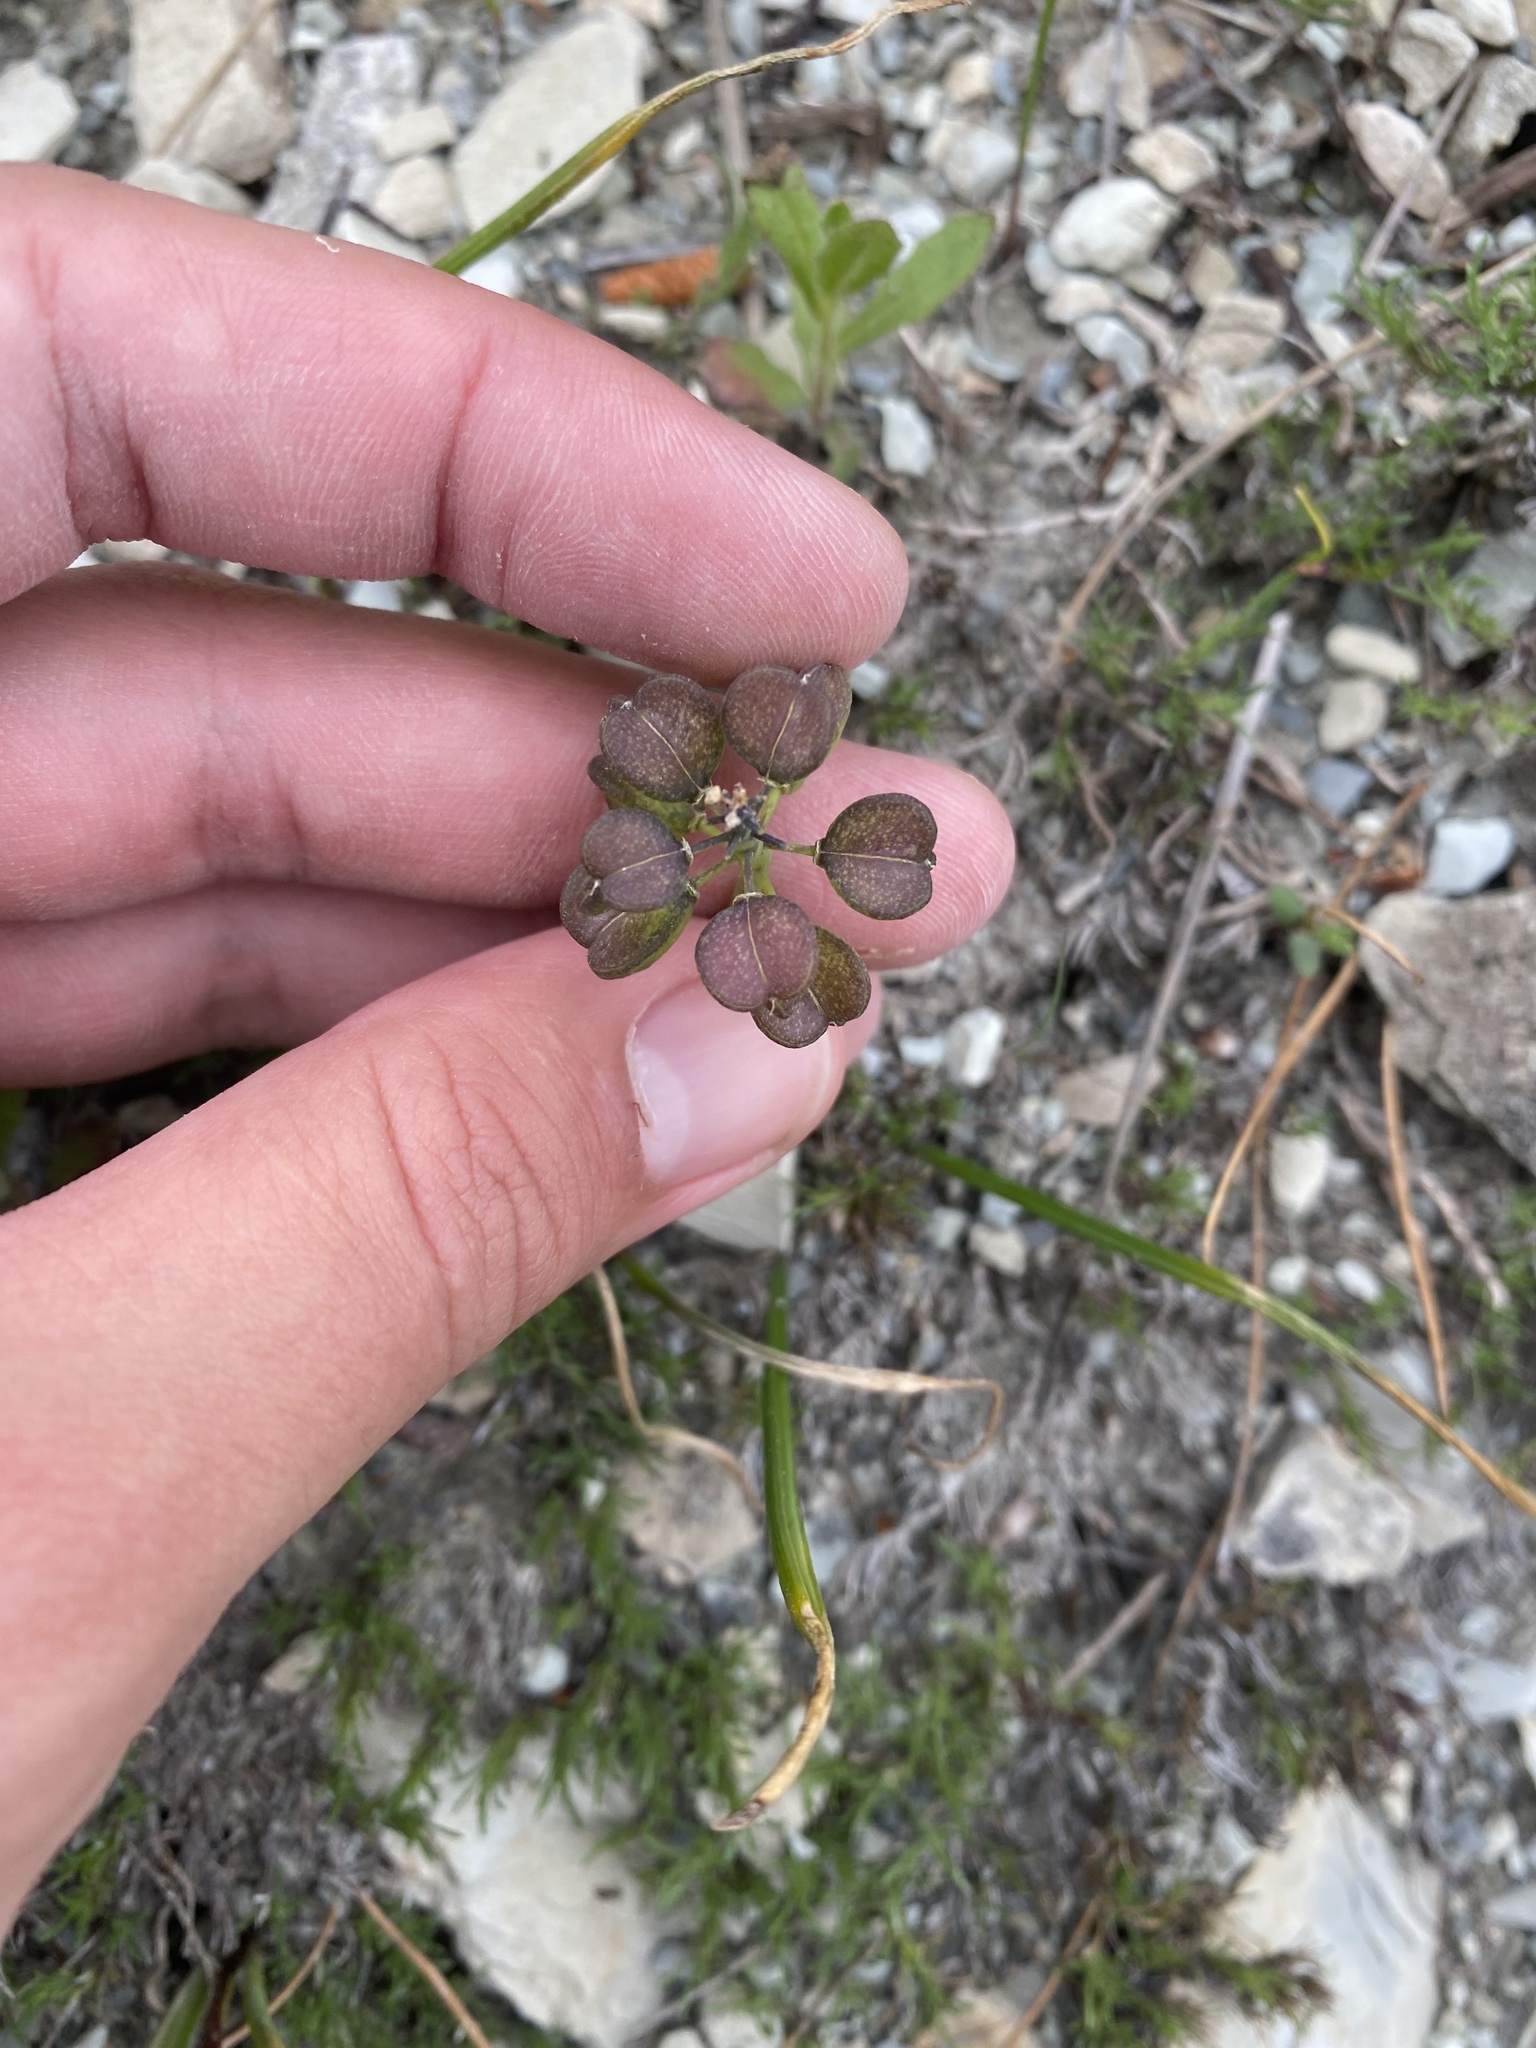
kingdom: Plantae
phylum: Tracheophyta
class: Liliopsida
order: Asparagales
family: Asparagaceae
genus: Muscari
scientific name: Muscari neglectum
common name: Grape-hyacinth
